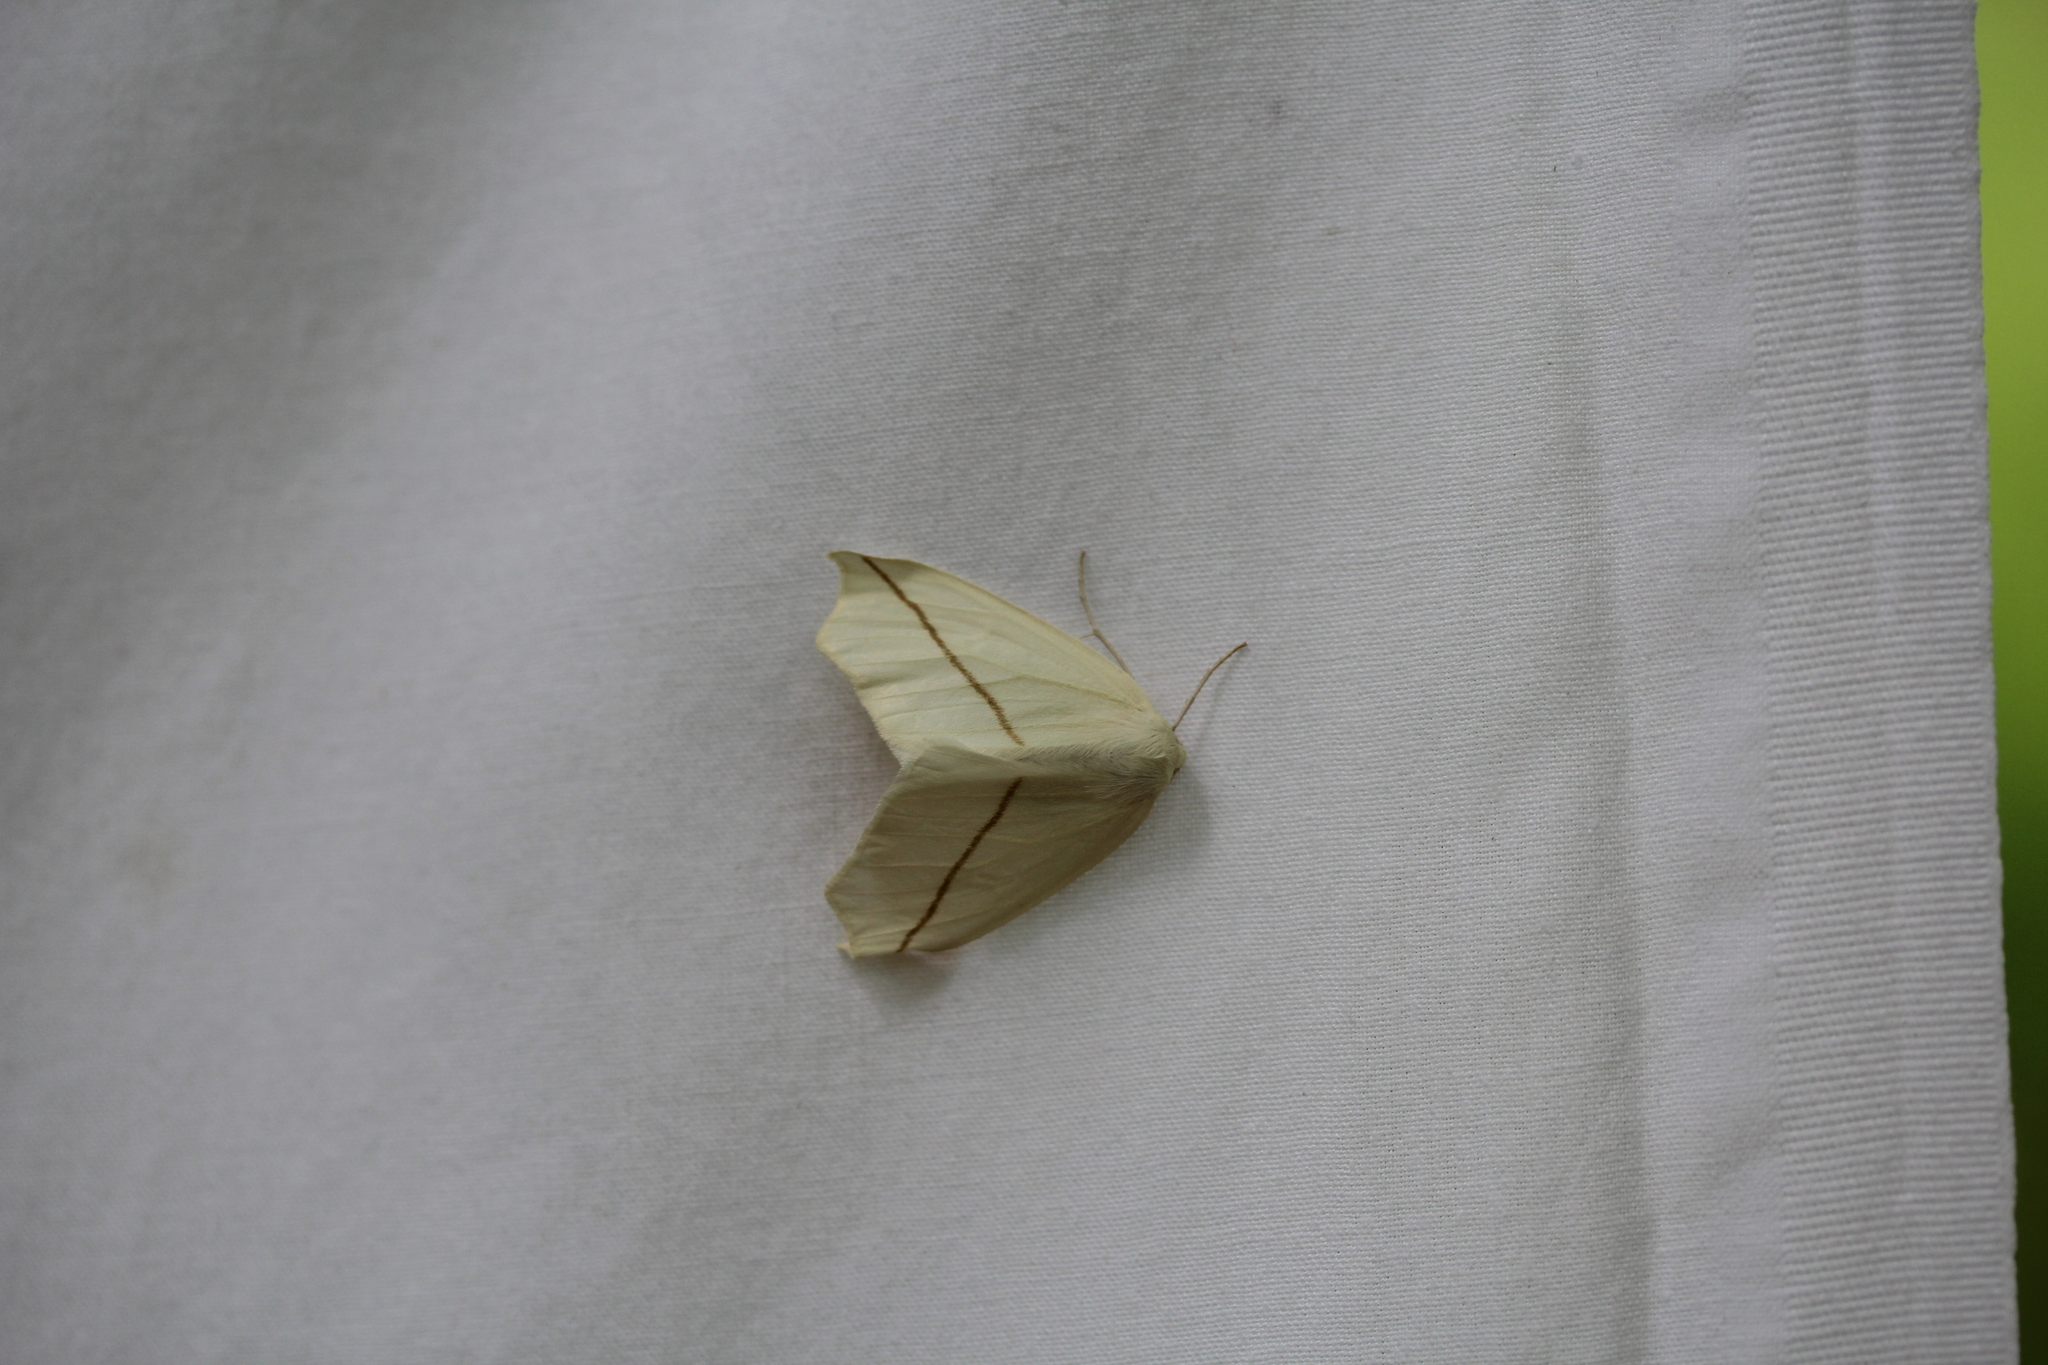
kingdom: Animalia
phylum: Arthropoda
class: Insecta
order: Lepidoptera
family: Geometridae
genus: Tetracis
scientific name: Tetracis crocallata
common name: Yellow slant-line
